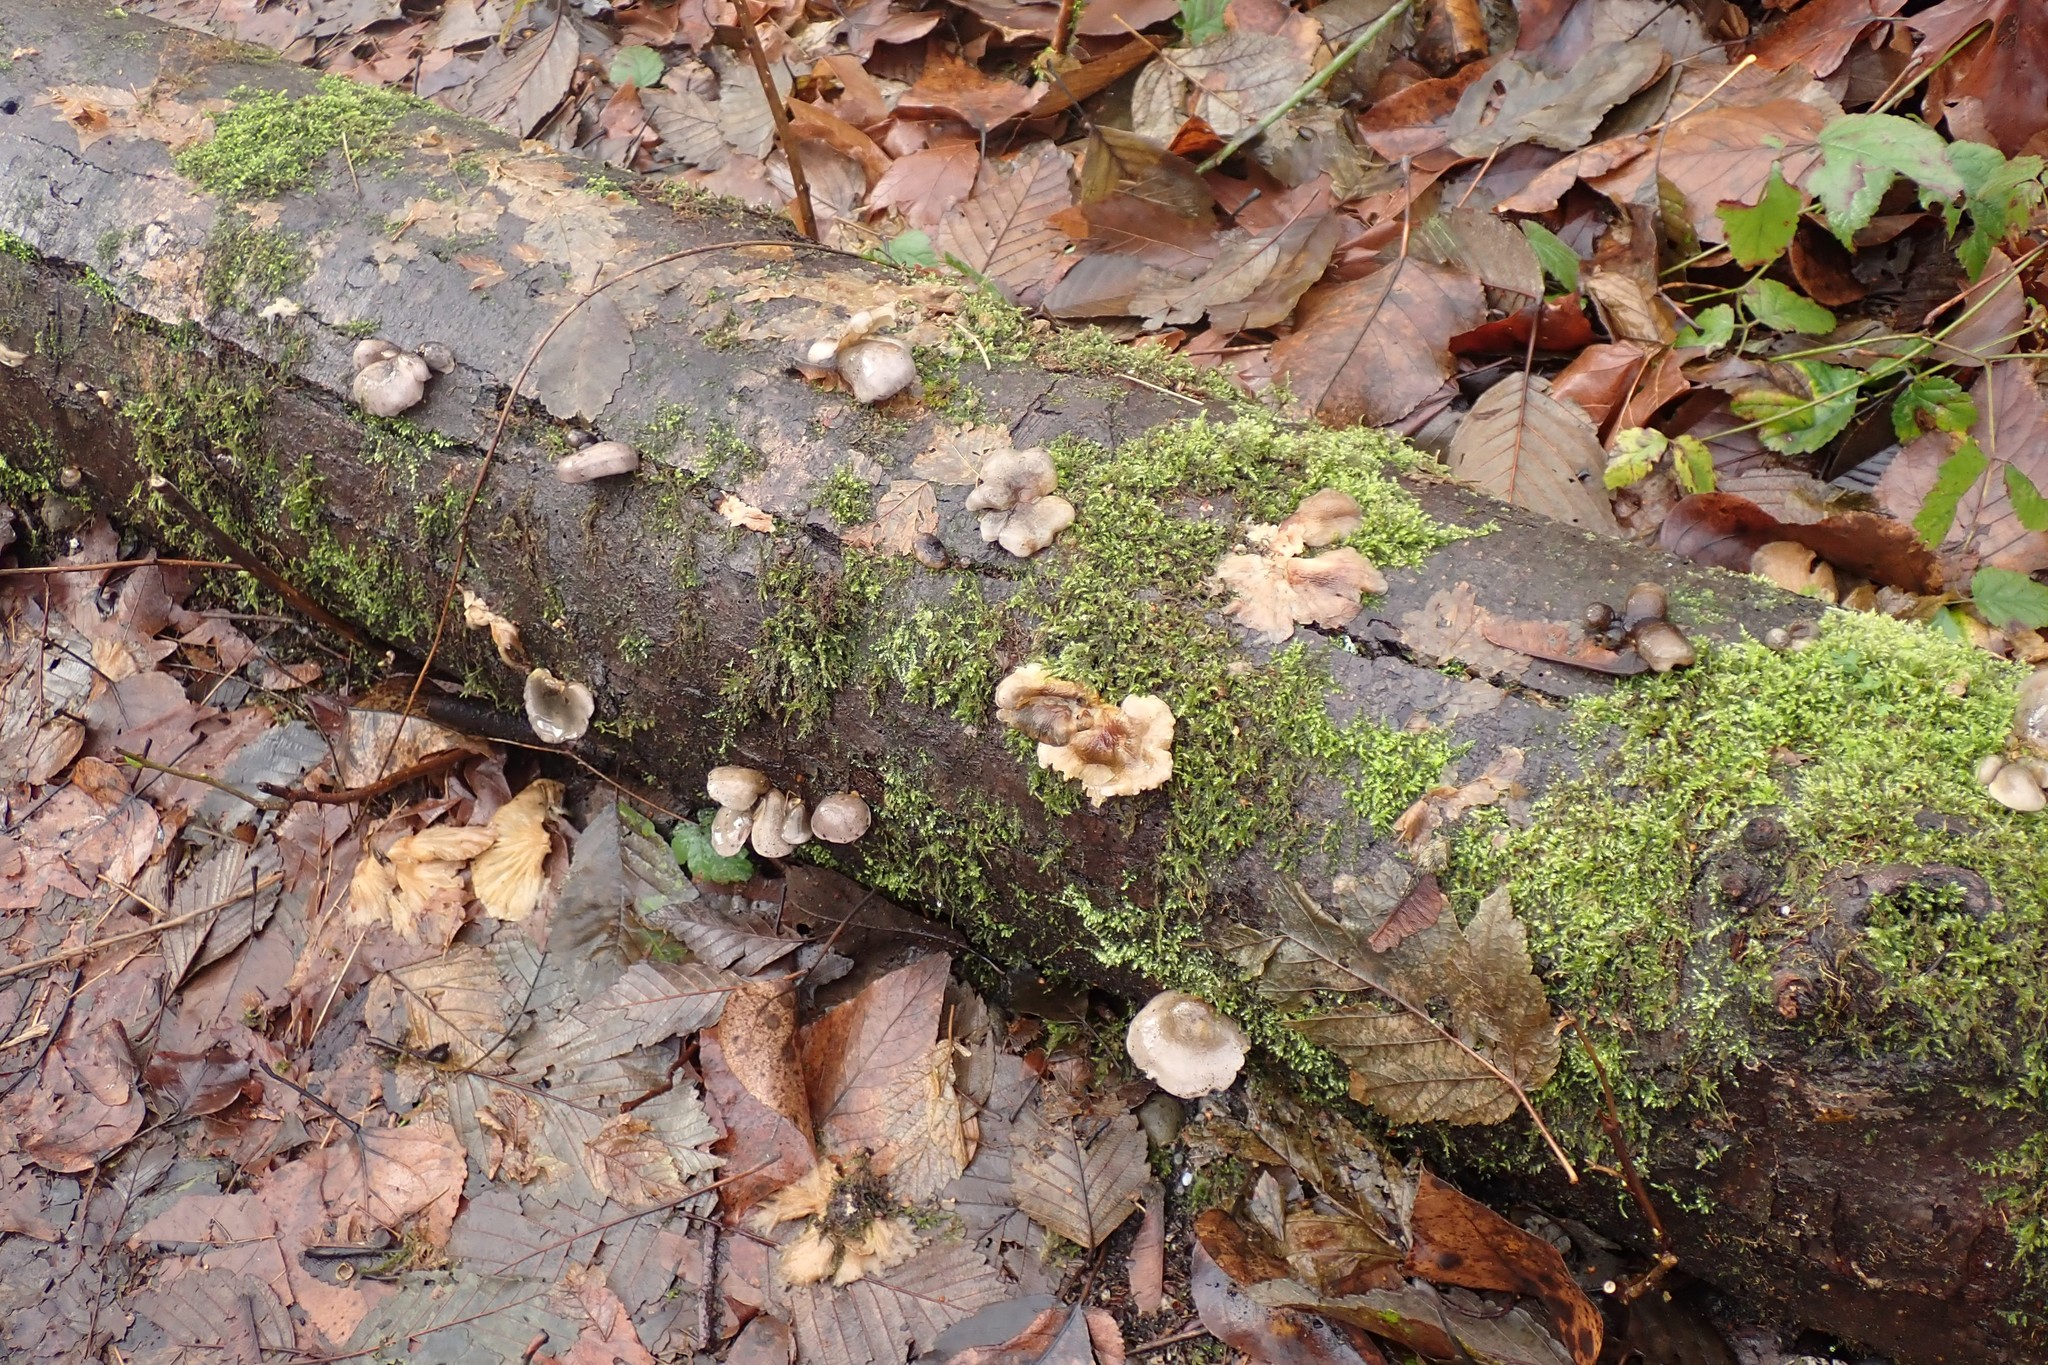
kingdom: Fungi
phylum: Basidiomycota
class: Agaricomycetes
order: Agaricales
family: Sarcomyxaceae
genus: Sarcomyxa
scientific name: Sarcomyxa serotina
